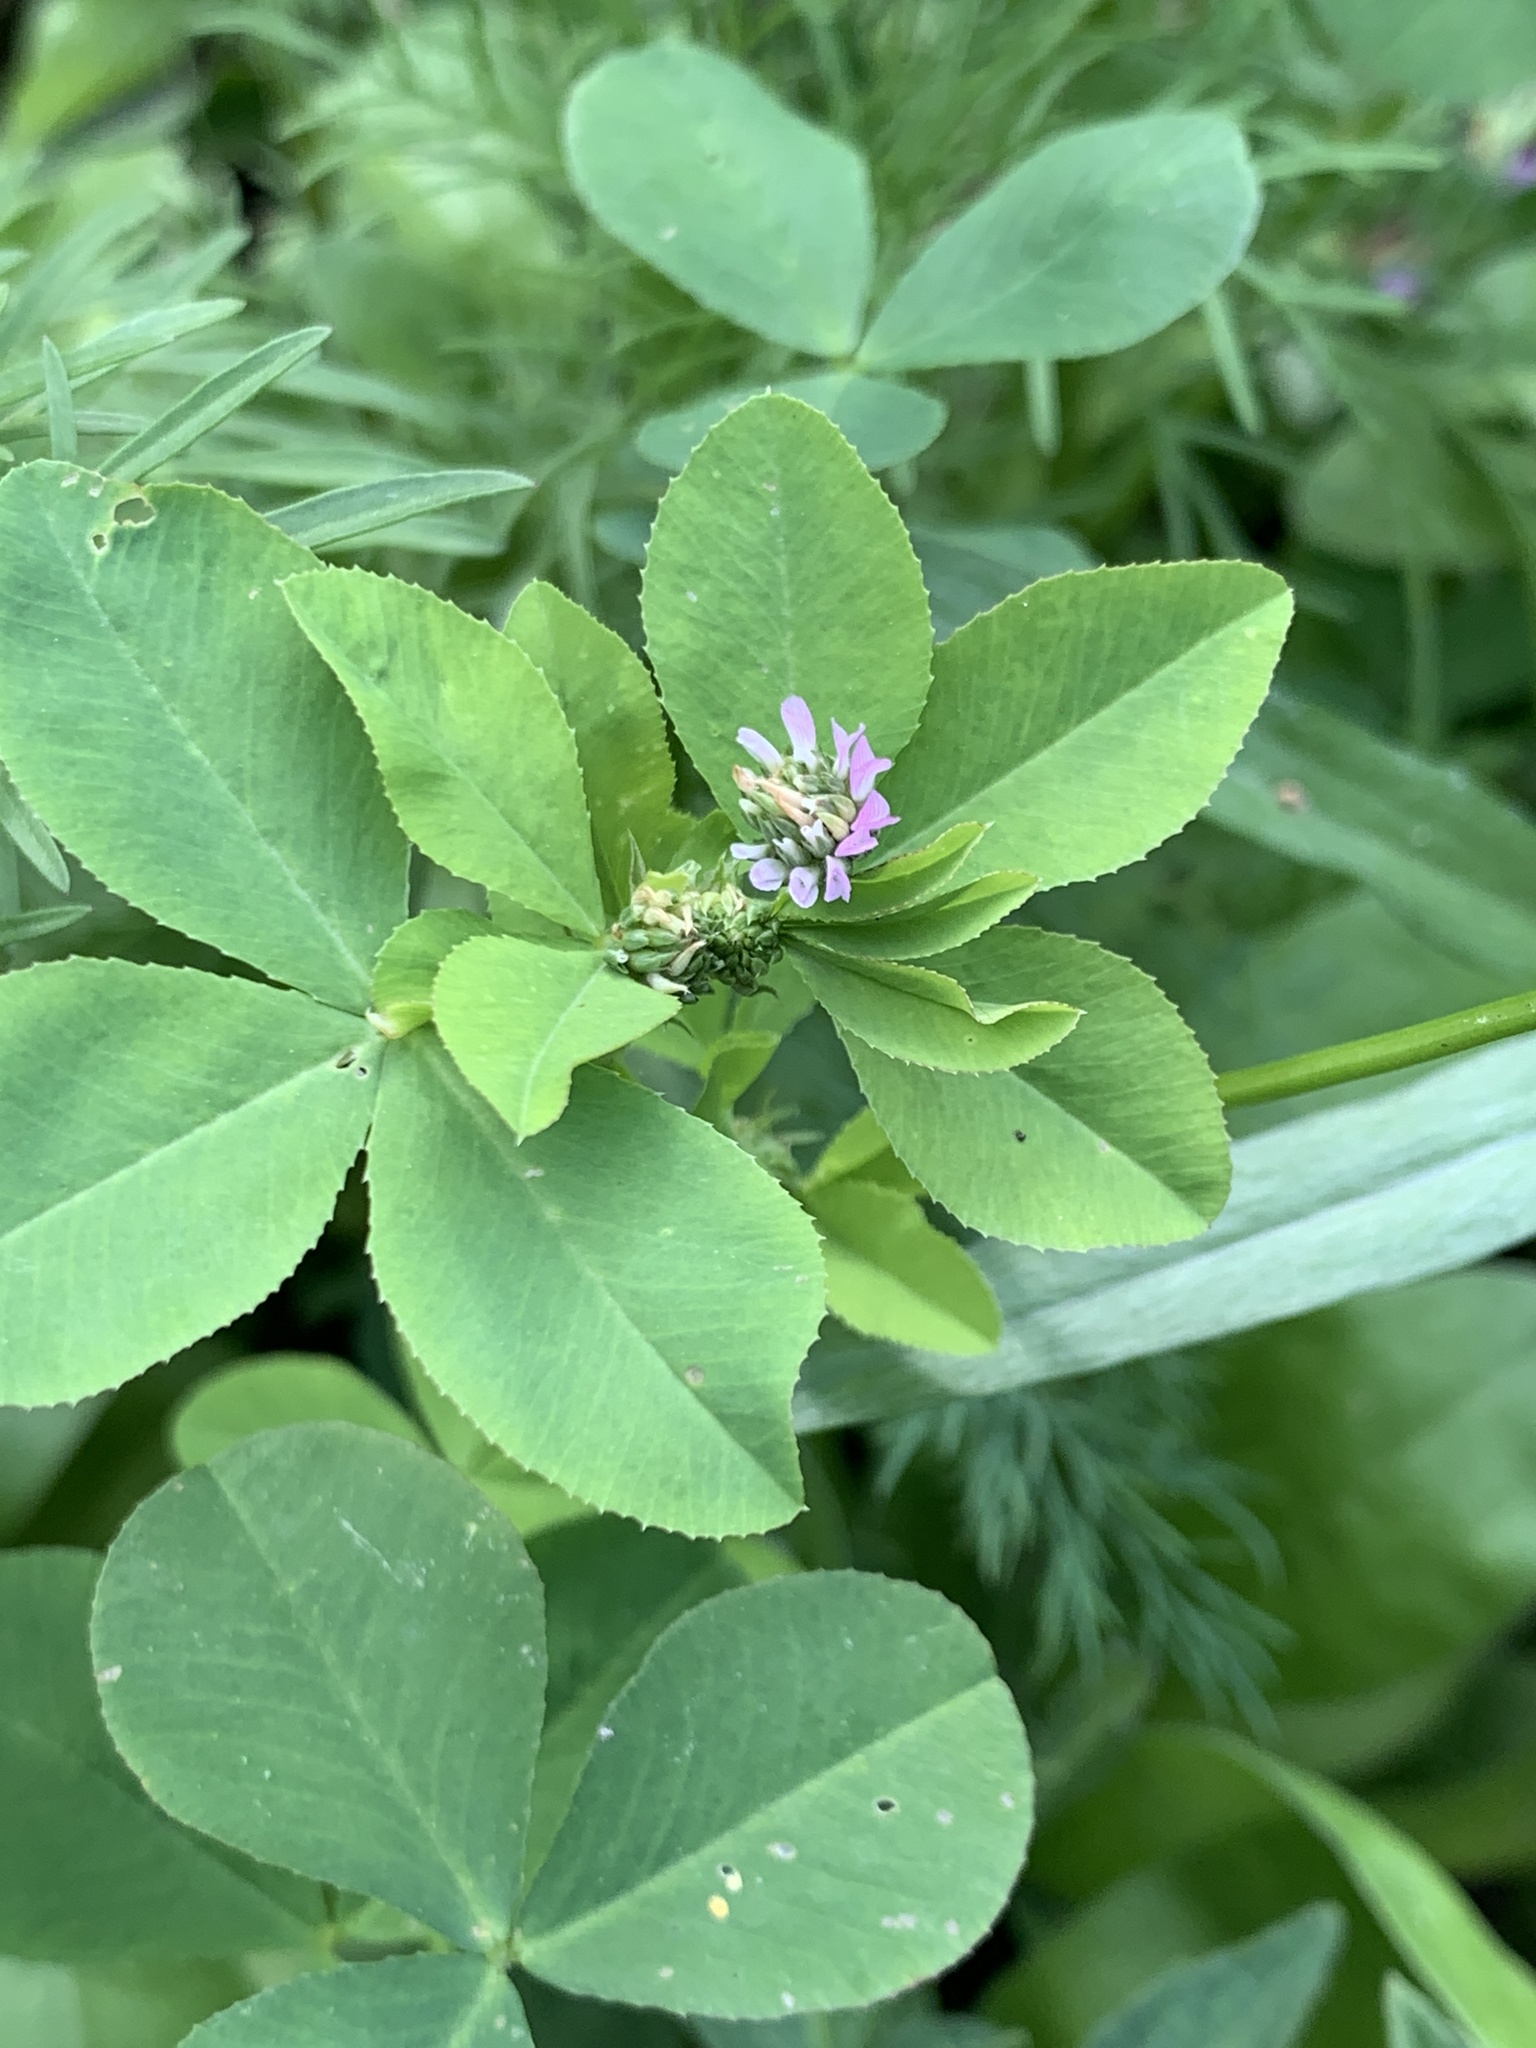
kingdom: Plantae
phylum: Tracheophyta
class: Magnoliopsida
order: Fabales
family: Fabaceae
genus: Trifolium
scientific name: Trifolium resupinatum
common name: Reversed clover
